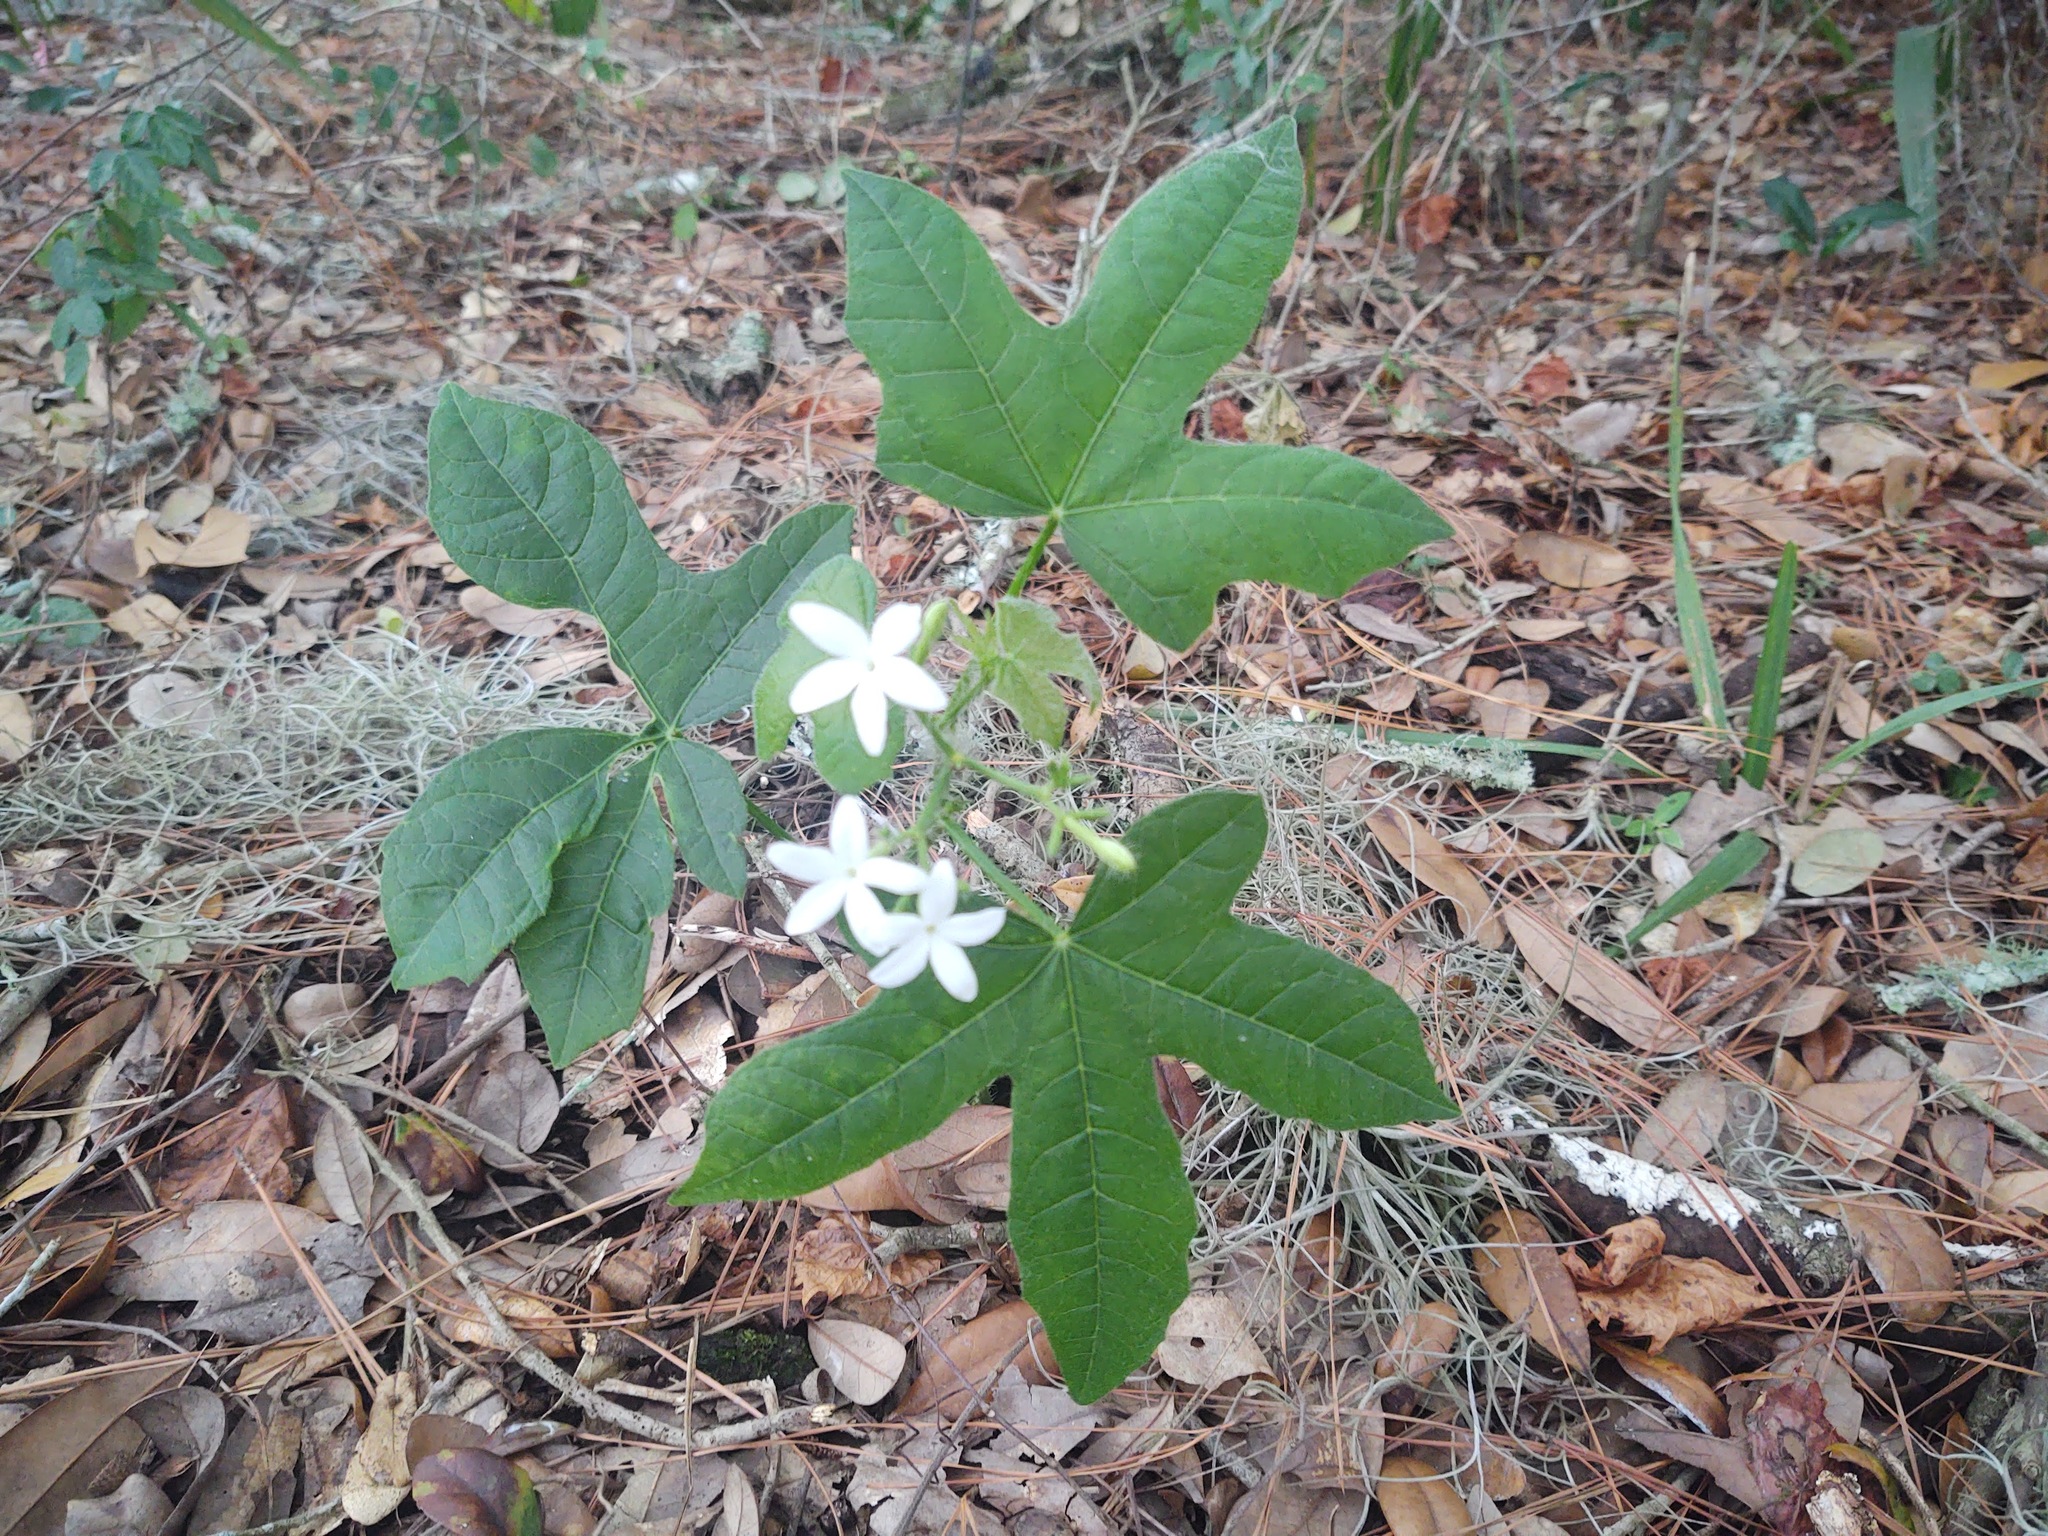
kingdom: Plantae
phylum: Tracheophyta
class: Magnoliopsida
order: Malpighiales
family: Euphorbiaceae
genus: Cnidoscolus
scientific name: Cnidoscolus stimulosus
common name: Bull-nettle
